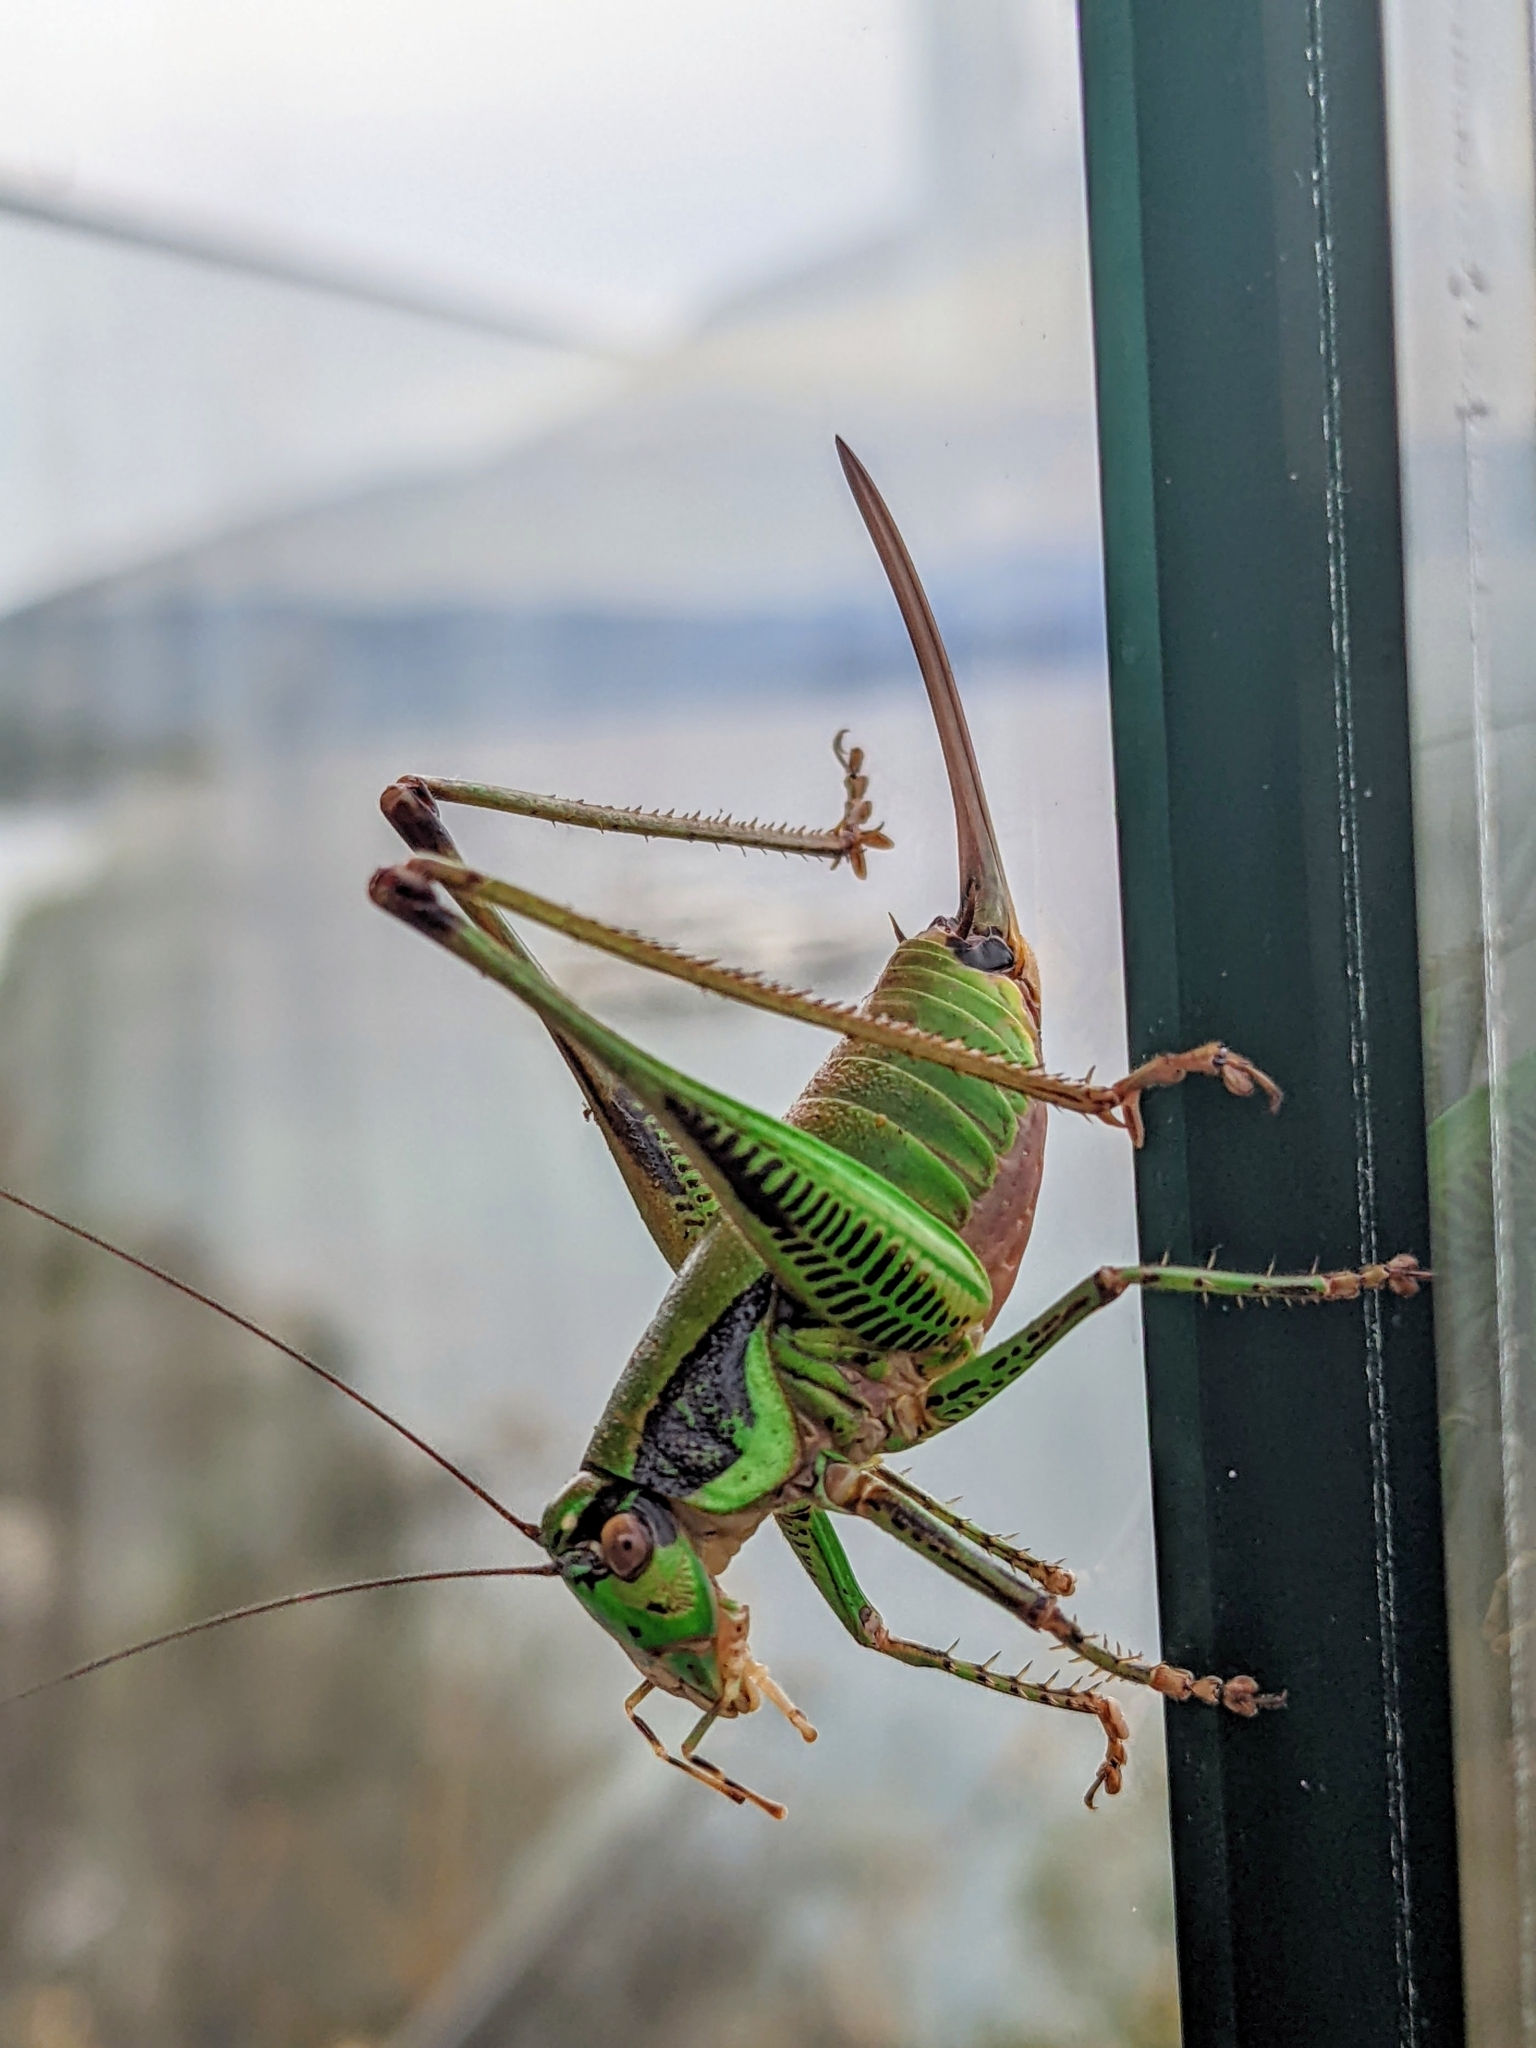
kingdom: Animalia
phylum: Arthropoda
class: Insecta
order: Orthoptera
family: Tettigoniidae
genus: Eupholidoptera
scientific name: Eupholidoptera garganica
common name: Gargano marbled bush-cricket
